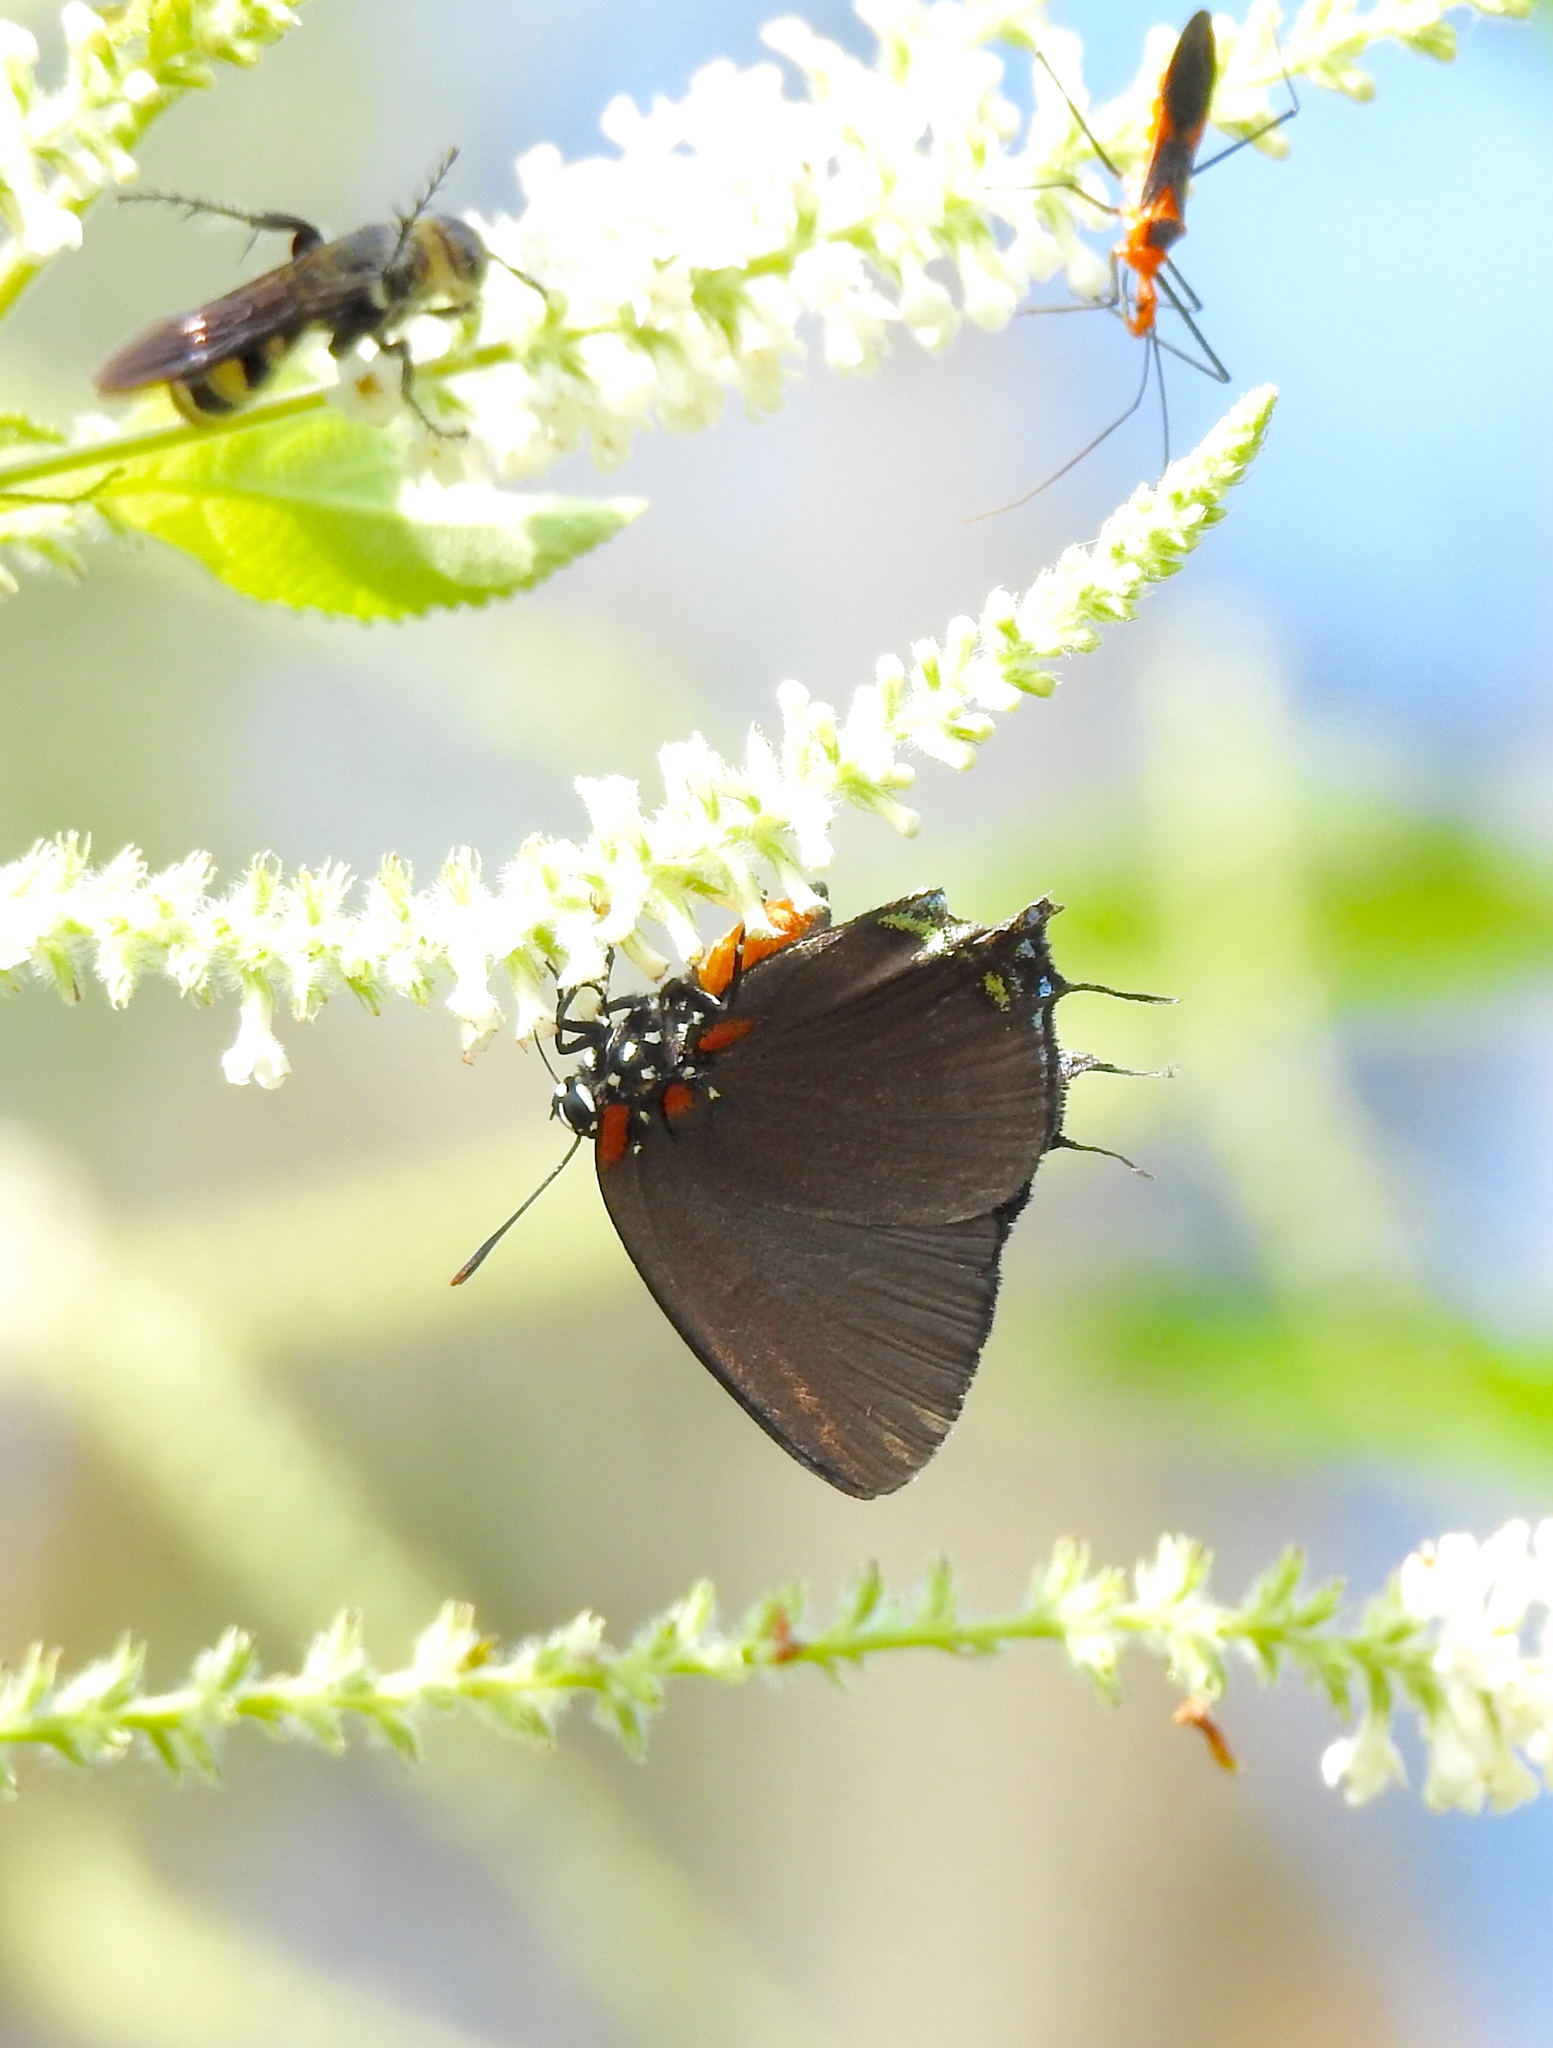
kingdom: Animalia
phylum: Arthropoda
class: Insecta
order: Lepidoptera
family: Lycaenidae
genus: Atlides
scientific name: Atlides halesus
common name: Great purple hairstreak
